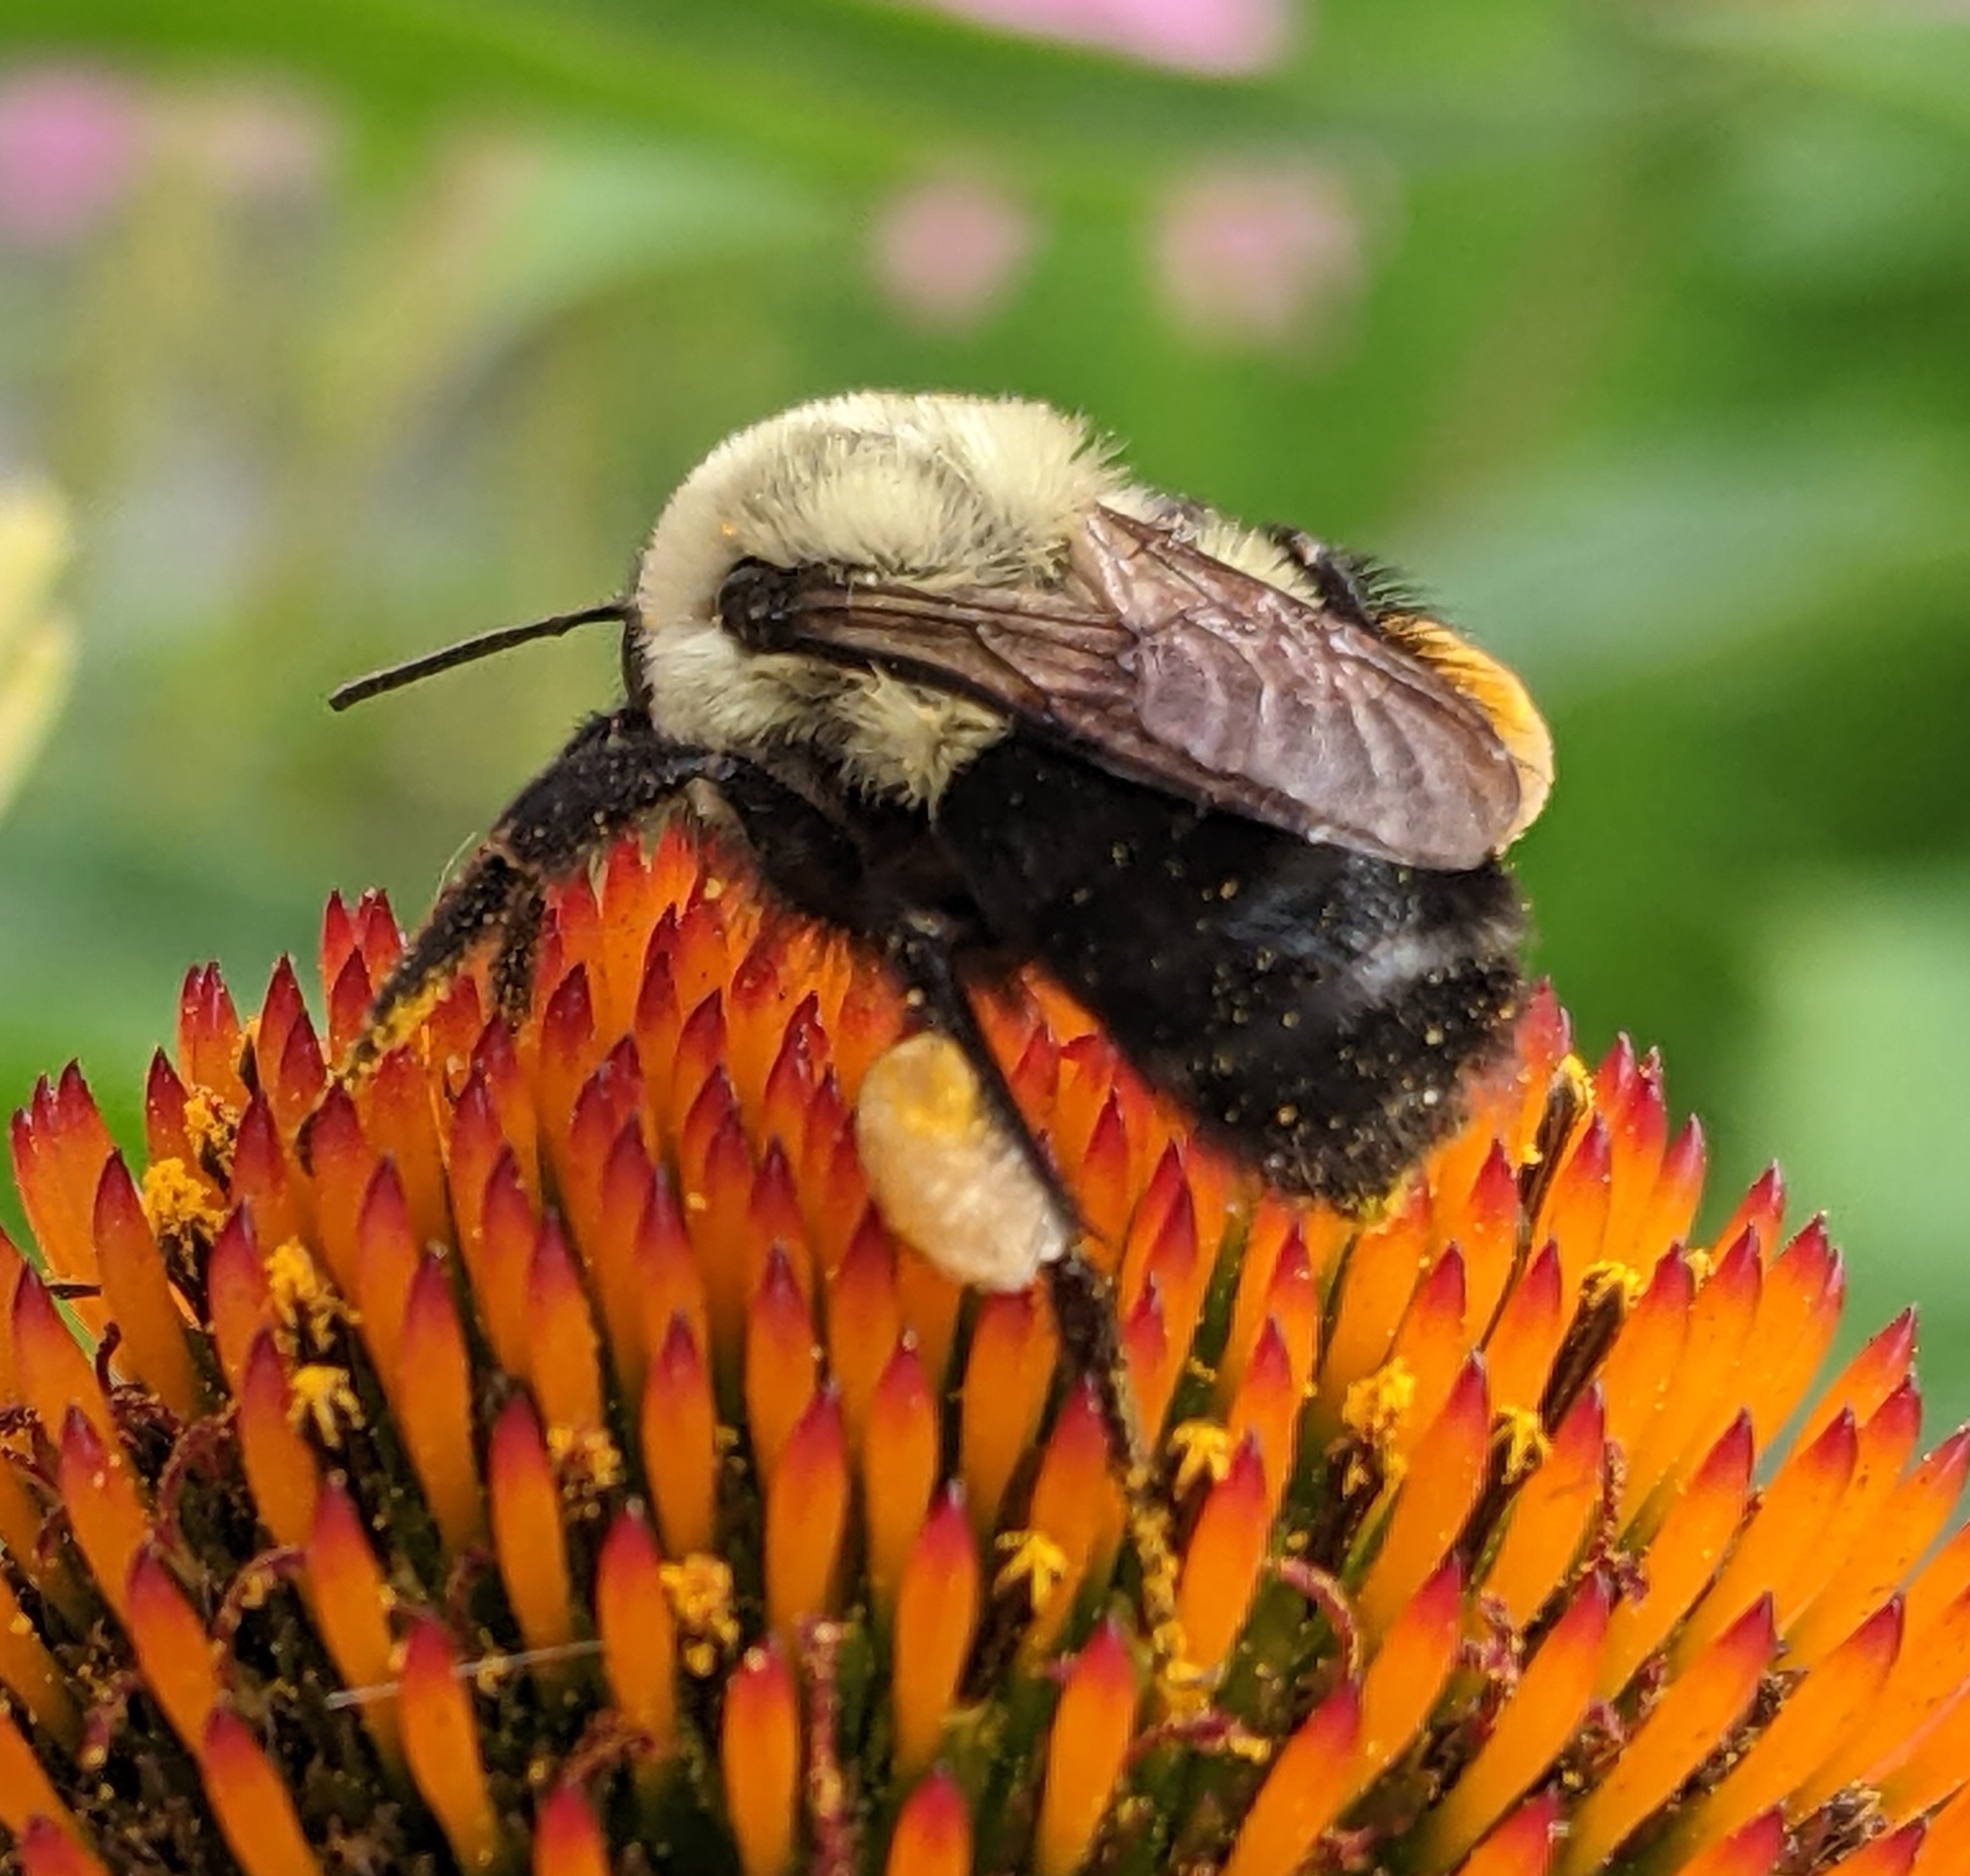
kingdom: Animalia
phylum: Arthropoda
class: Insecta
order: Hymenoptera
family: Apidae
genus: Bombus
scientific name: Bombus impatiens
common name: Common eastern bumble bee
